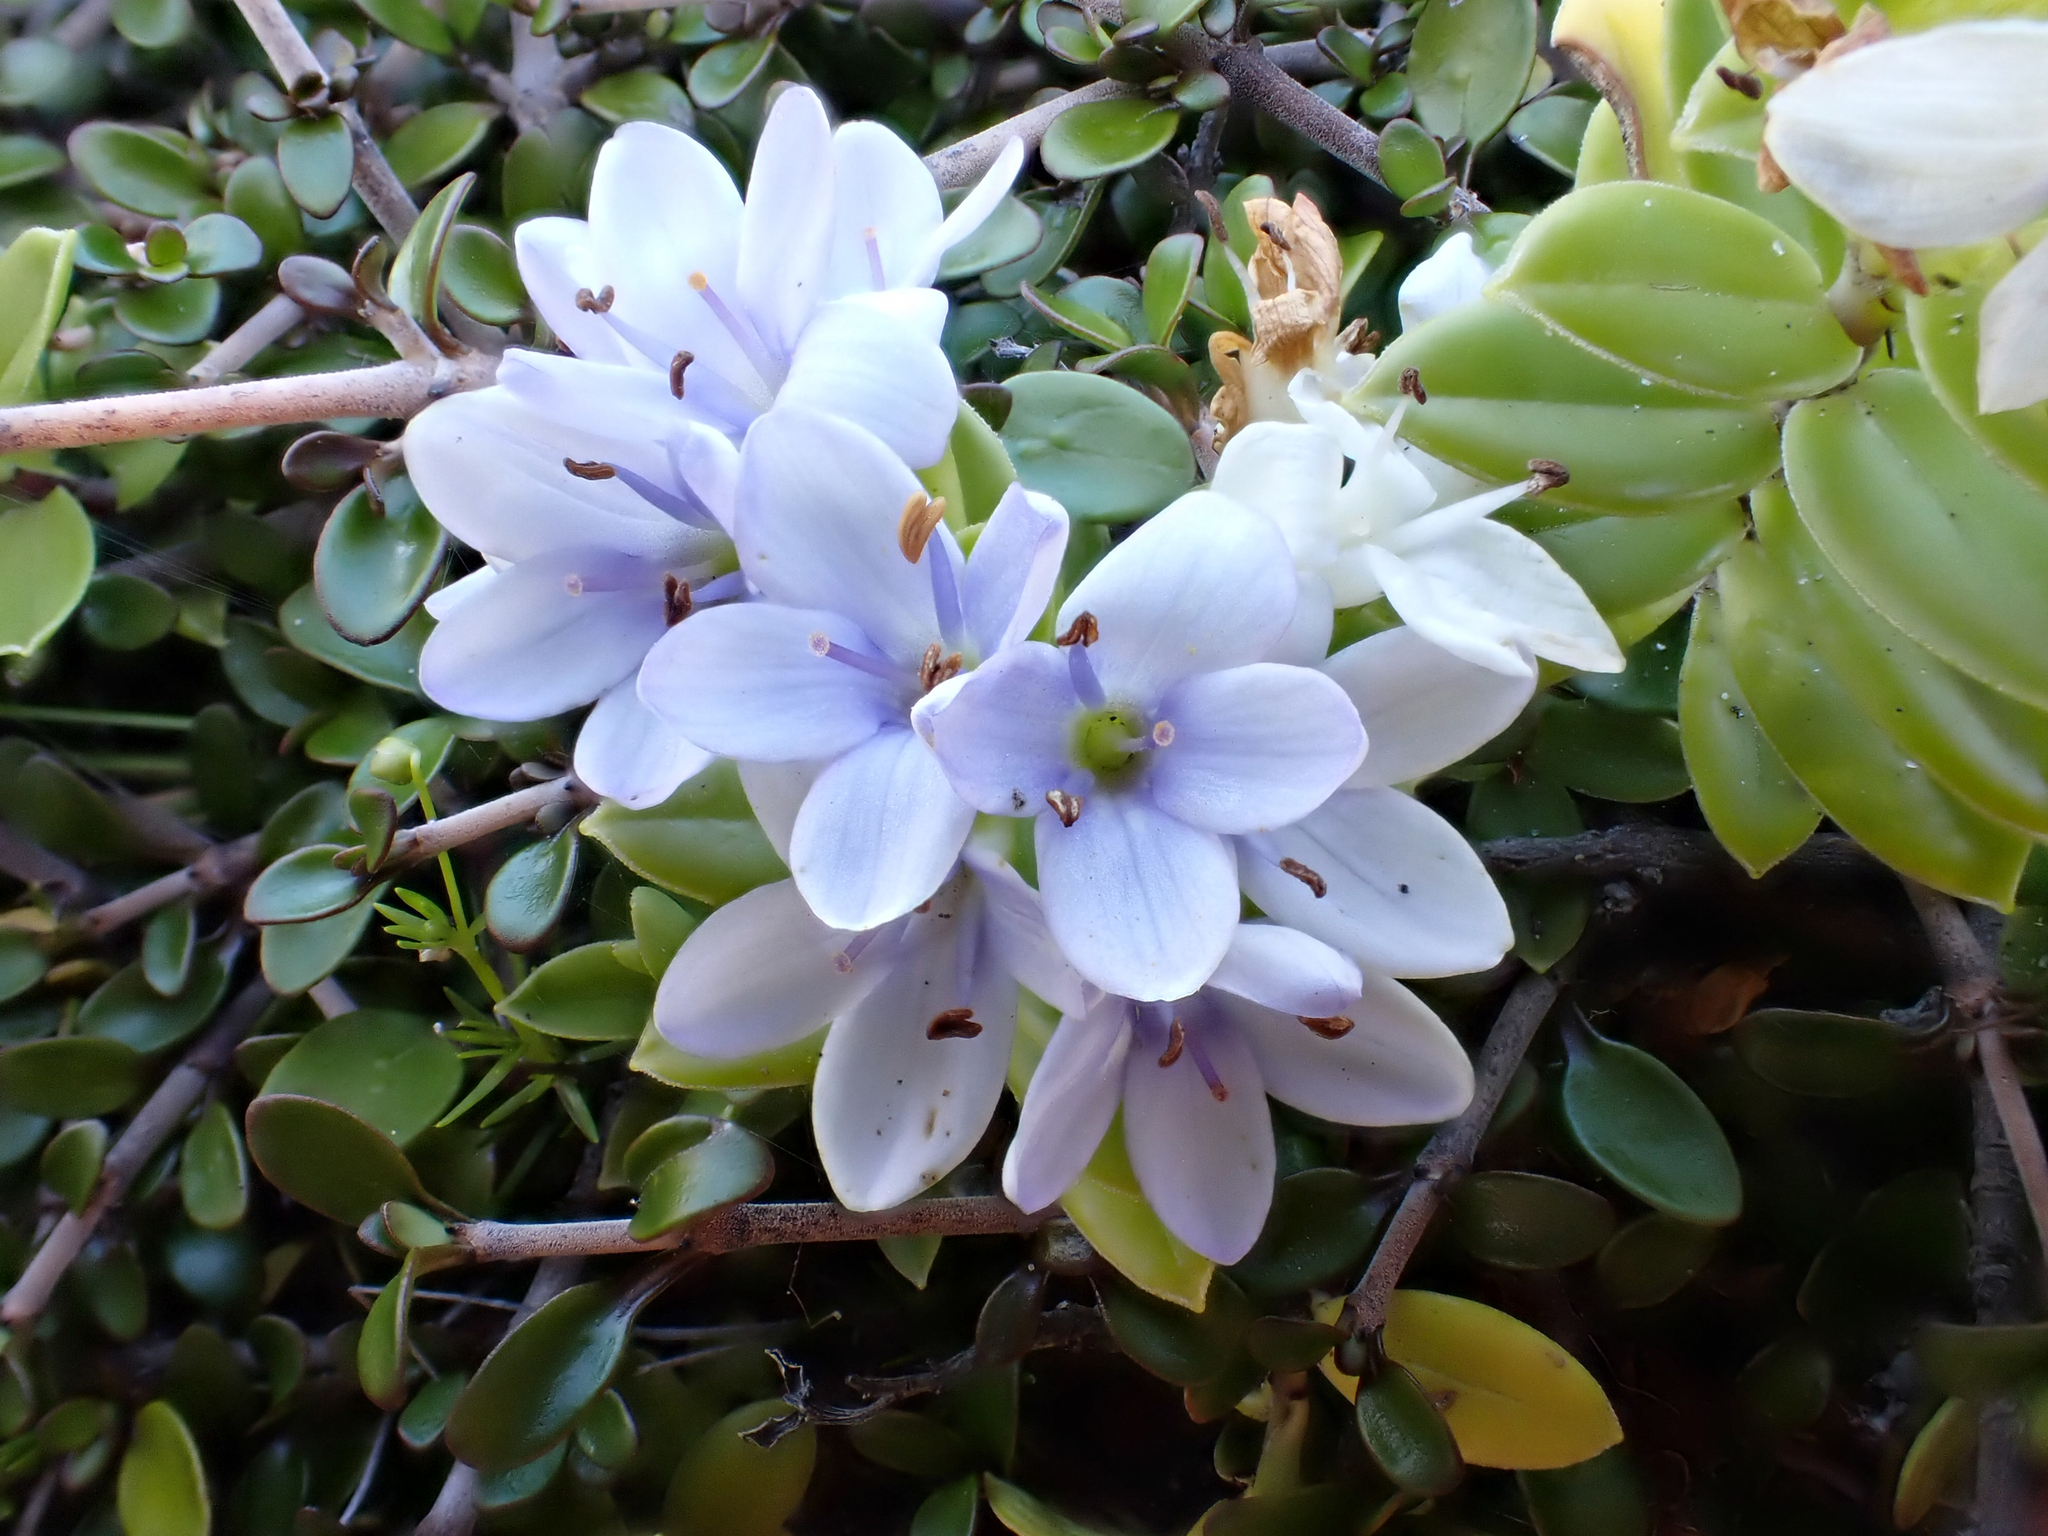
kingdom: Plantae
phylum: Tracheophyta
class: Magnoliopsida
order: Lamiales
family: Plantaginaceae
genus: Veronica
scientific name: Veronica elliptica
